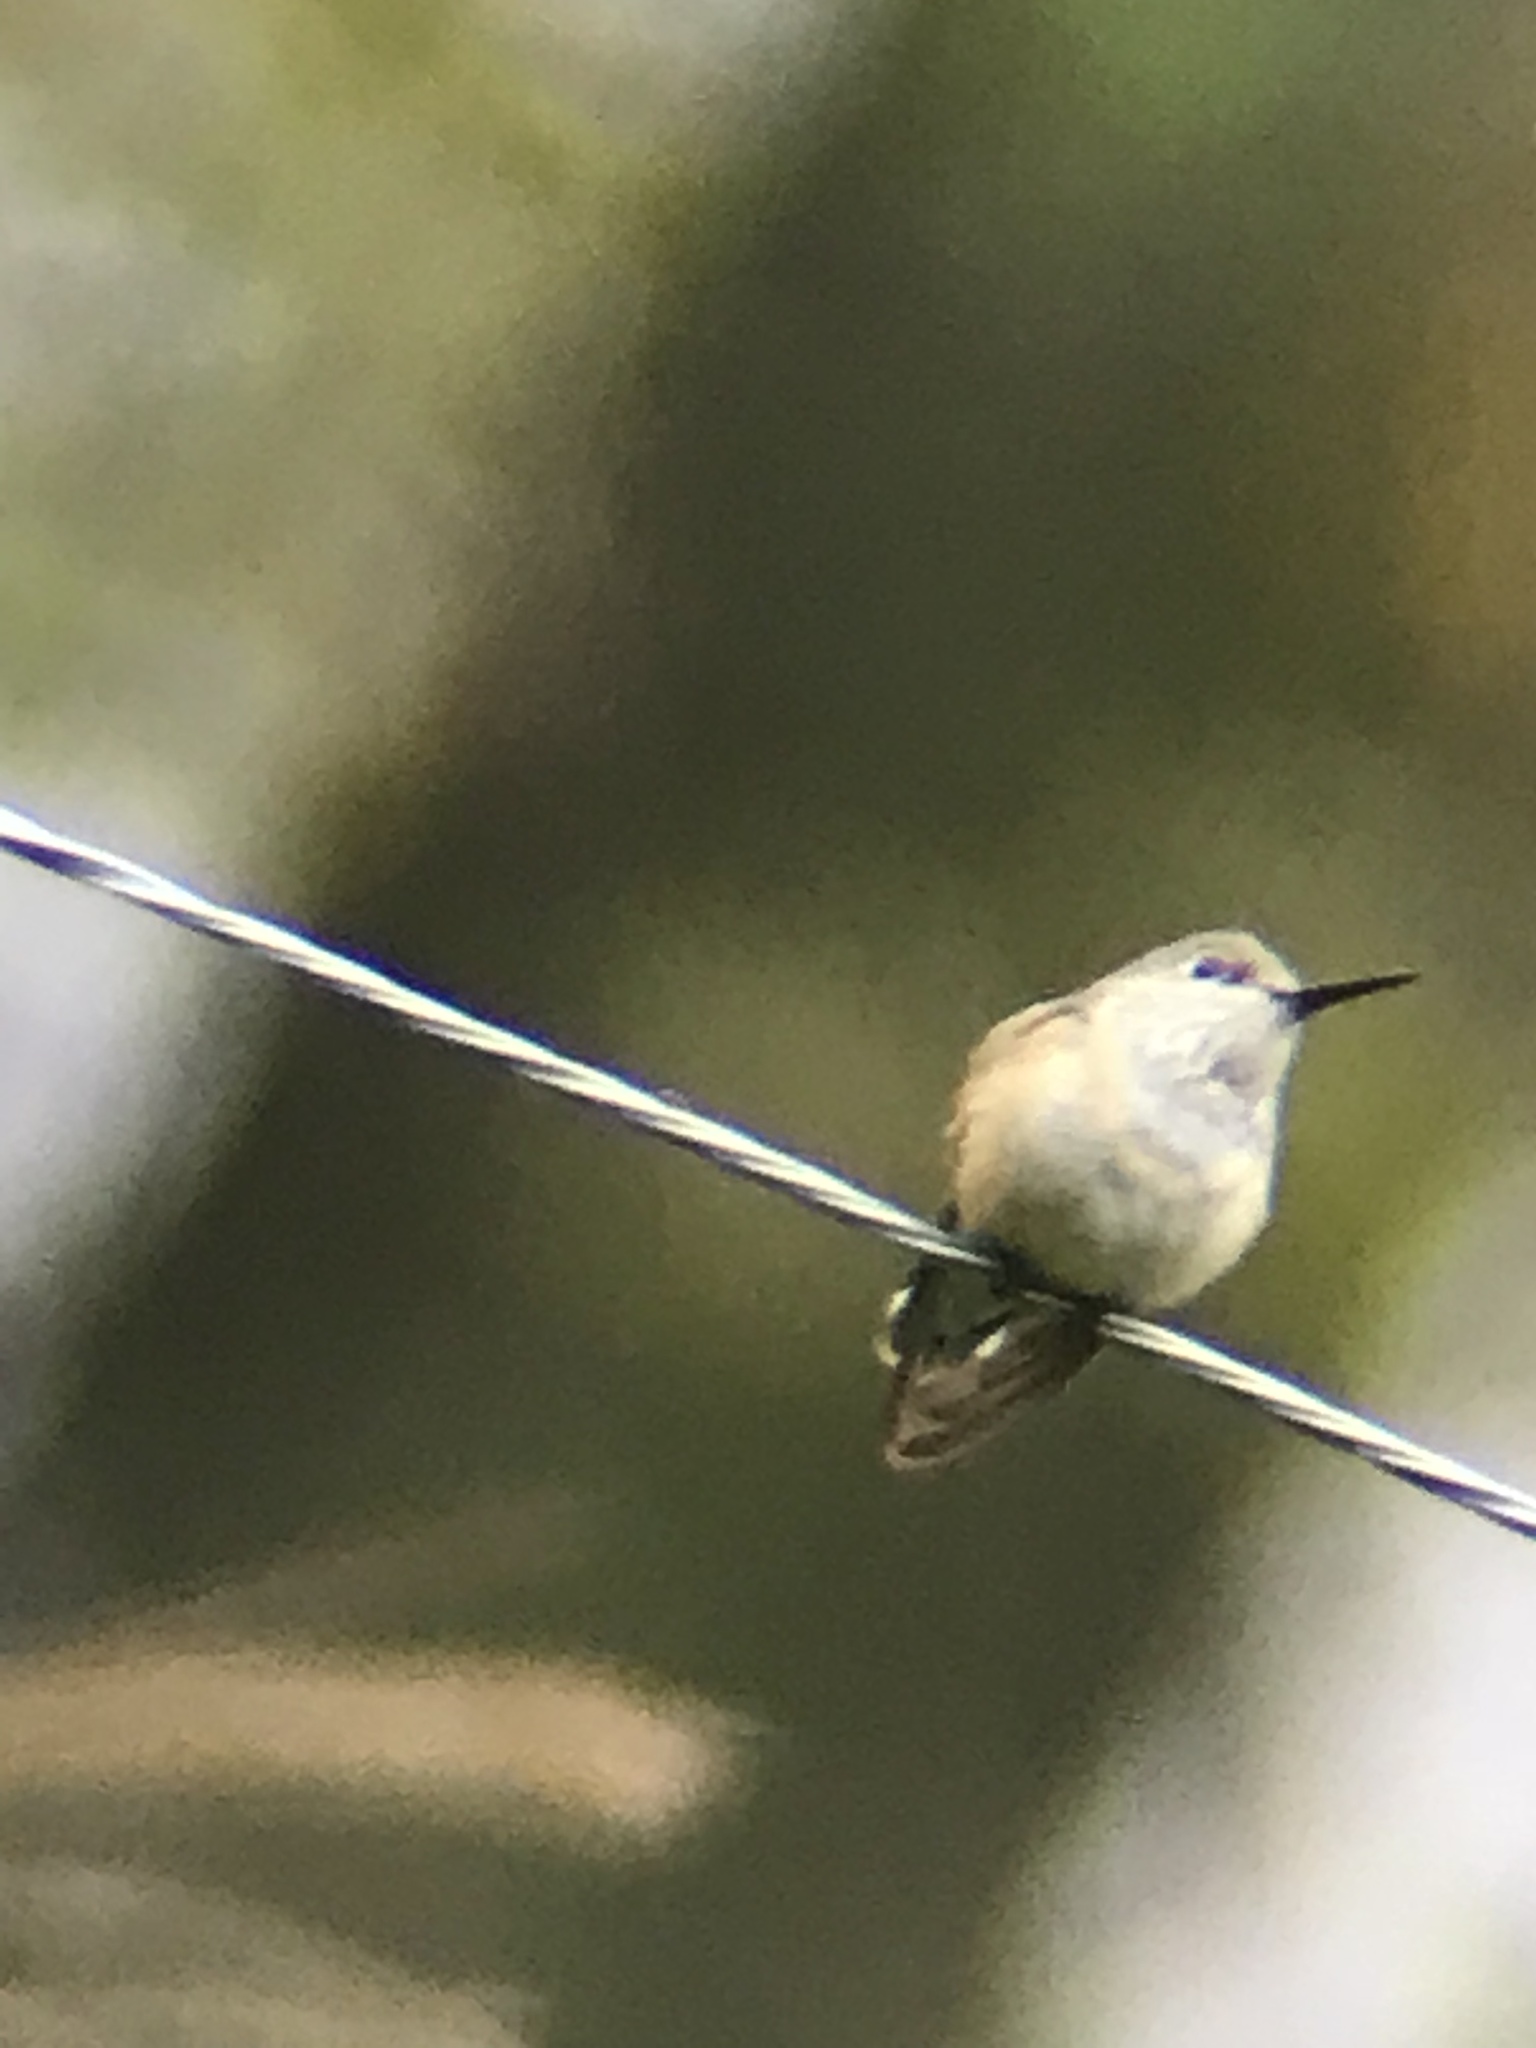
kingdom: Animalia
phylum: Chordata
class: Aves
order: Apodiformes
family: Trochilidae
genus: Selasphorus
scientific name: Selasphorus calliope
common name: Calliope hummingbird
